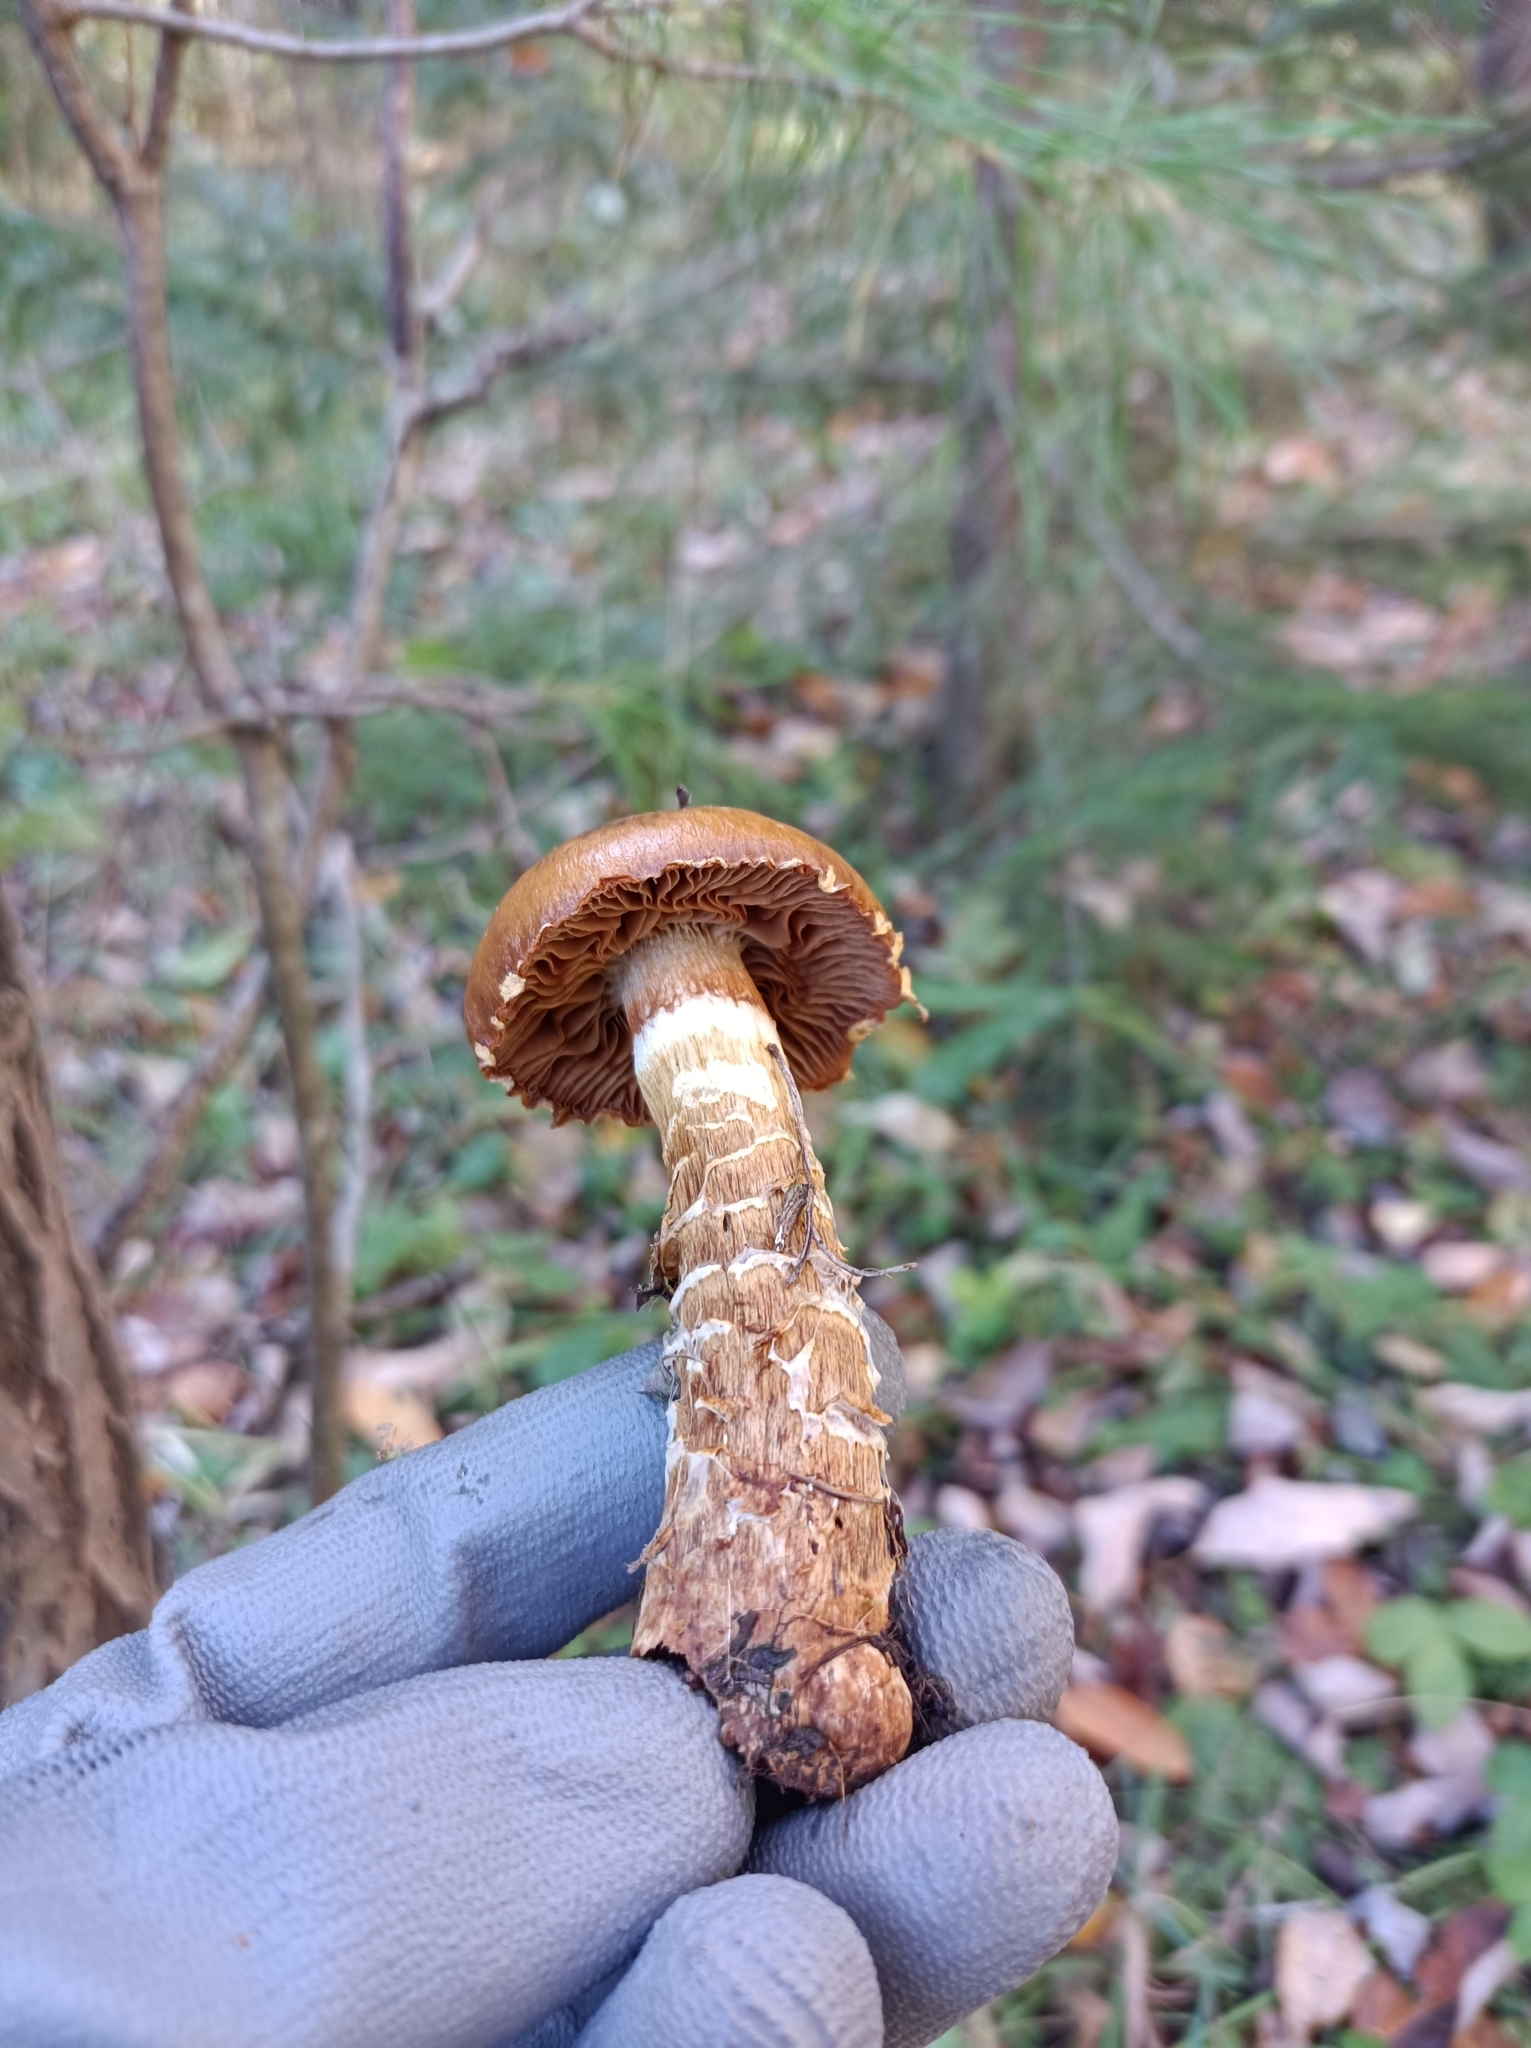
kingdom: Fungi
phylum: Basidiomycota
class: Agaricomycetes
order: Agaricales
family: Cortinariaceae
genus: Cortinarius
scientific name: Cortinarius trivialis
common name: Girdled webcap
